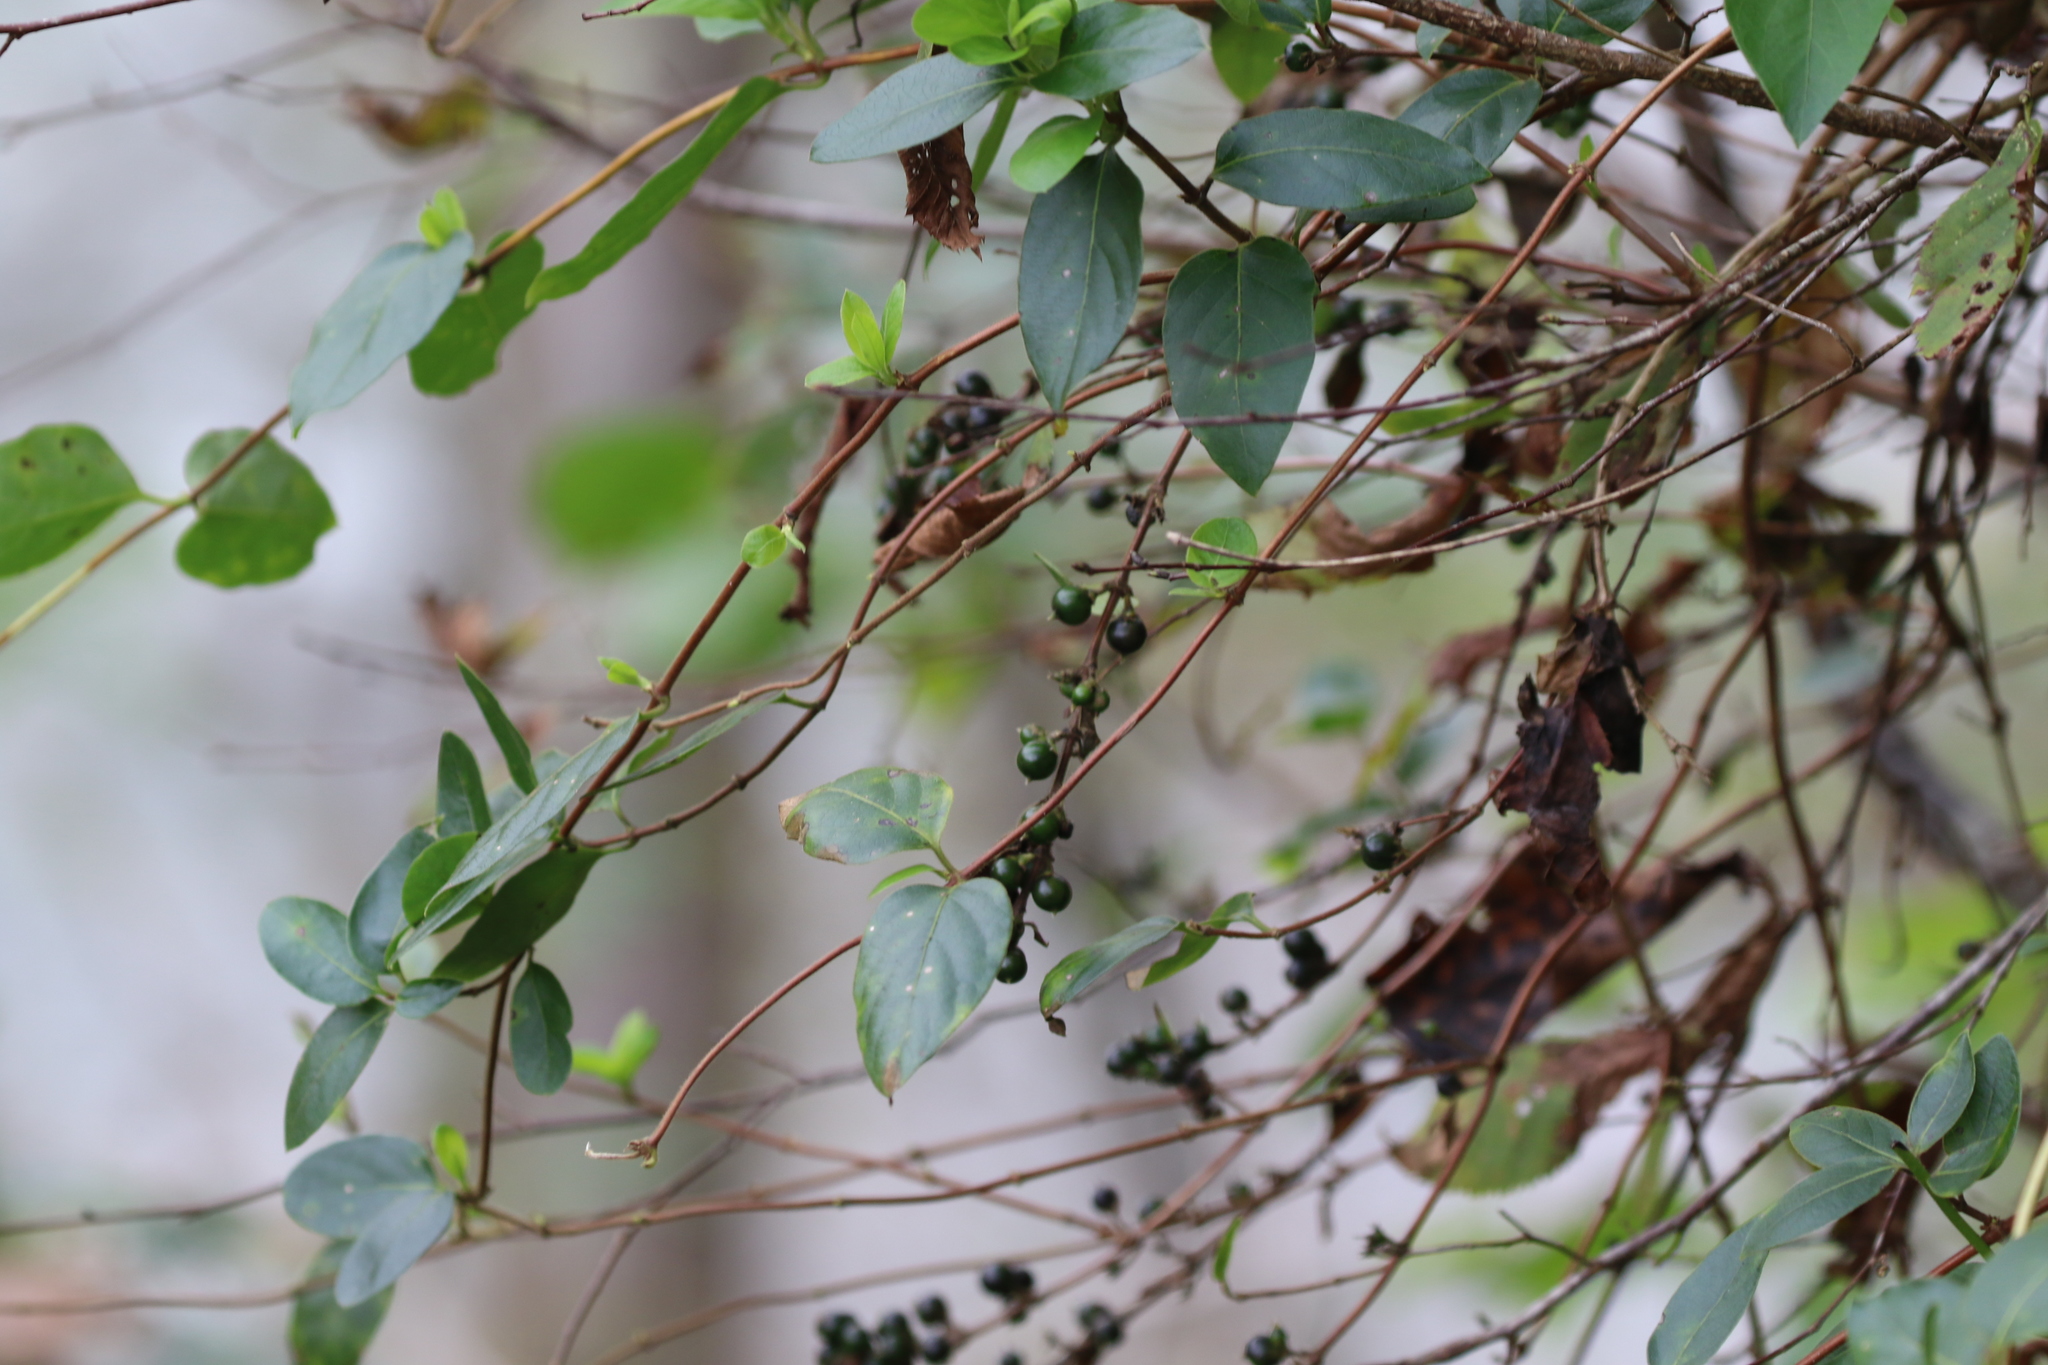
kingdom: Plantae
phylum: Tracheophyta
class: Magnoliopsida
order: Dipsacales
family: Caprifoliaceae
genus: Lonicera
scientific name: Lonicera japonica
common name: Japanese honeysuckle
